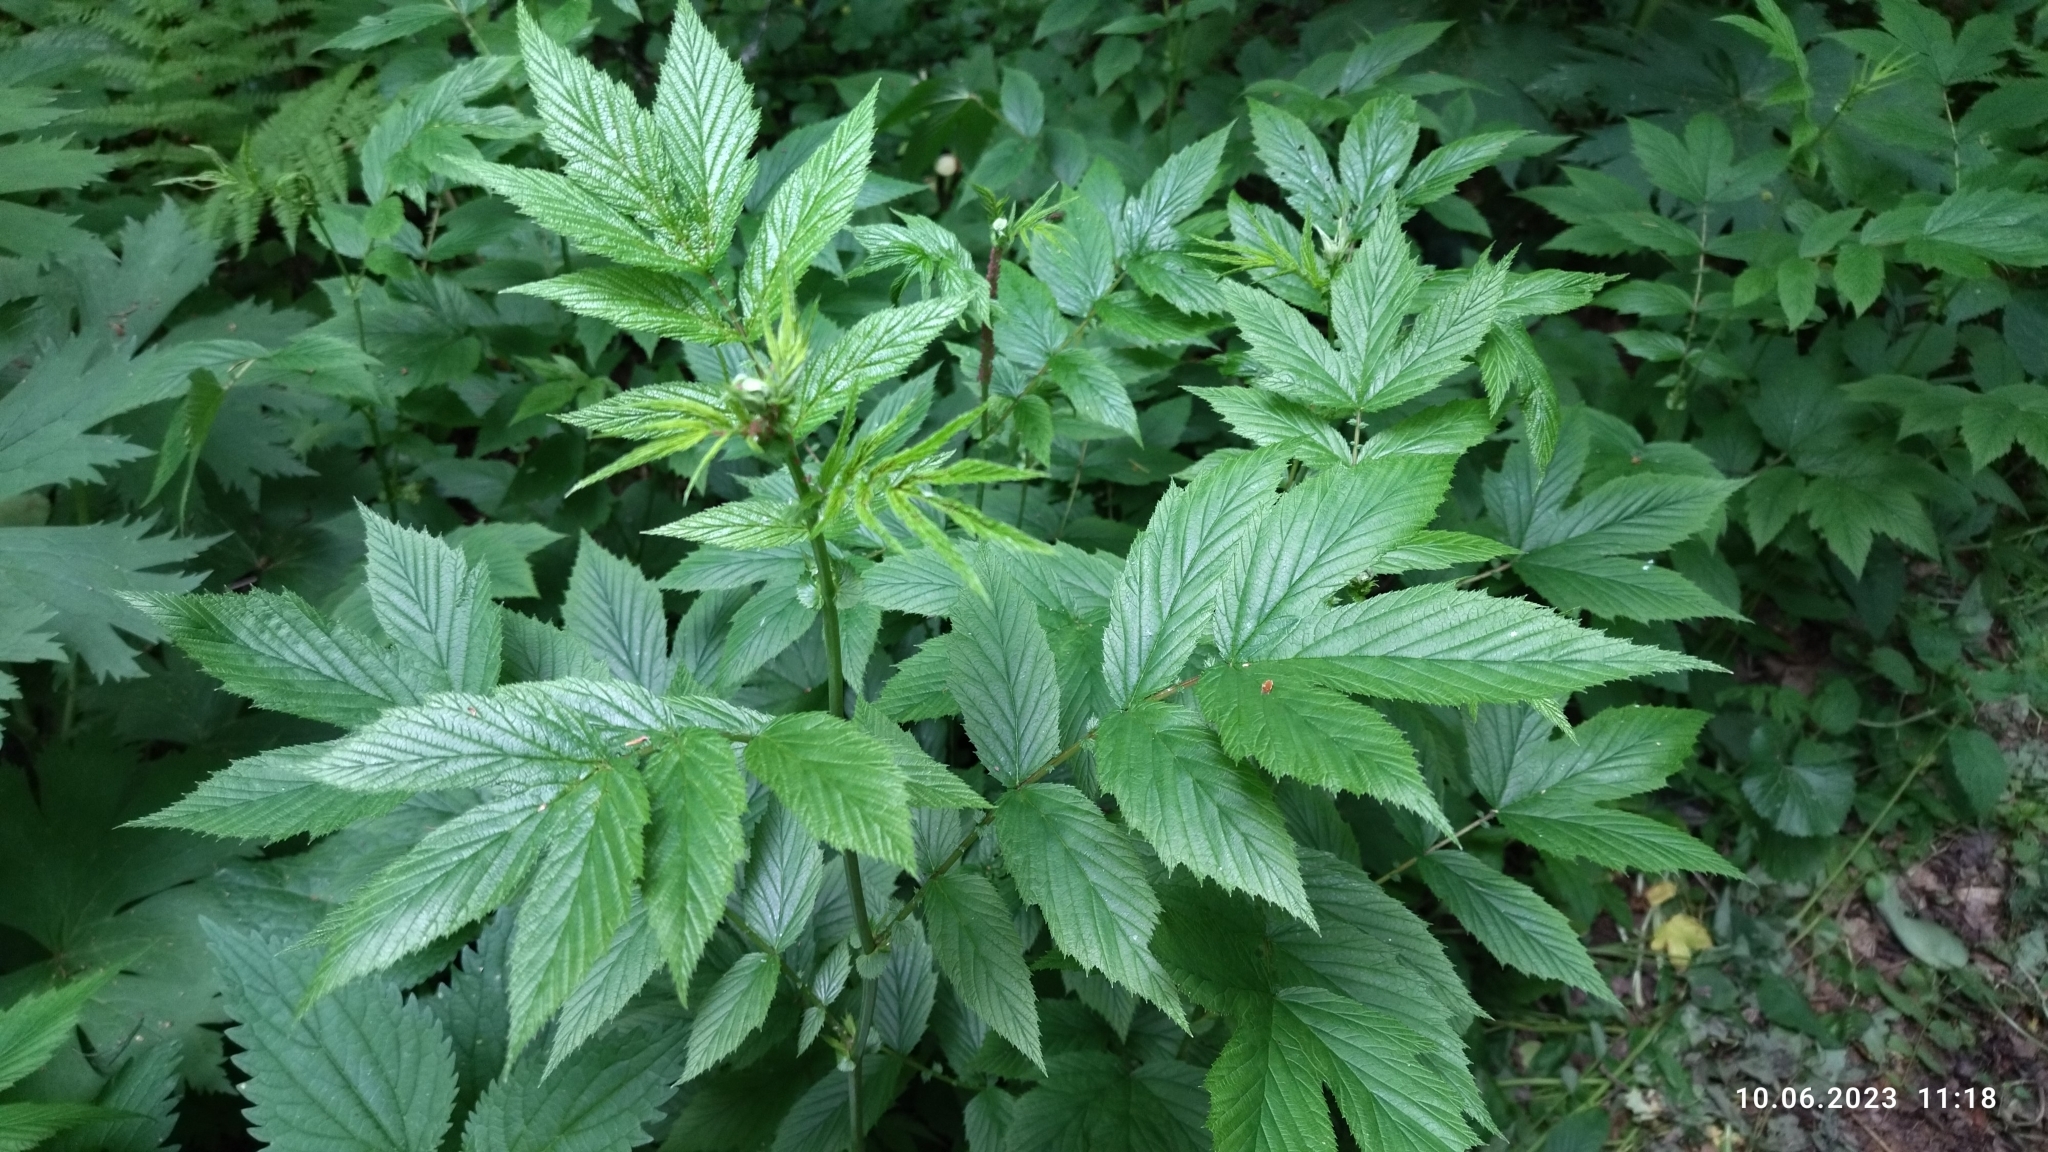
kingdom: Plantae
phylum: Tracheophyta
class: Magnoliopsida
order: Rosales
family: Rosaceae
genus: Filipendula
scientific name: Filipendula ulmaria
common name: Meadowsweet
